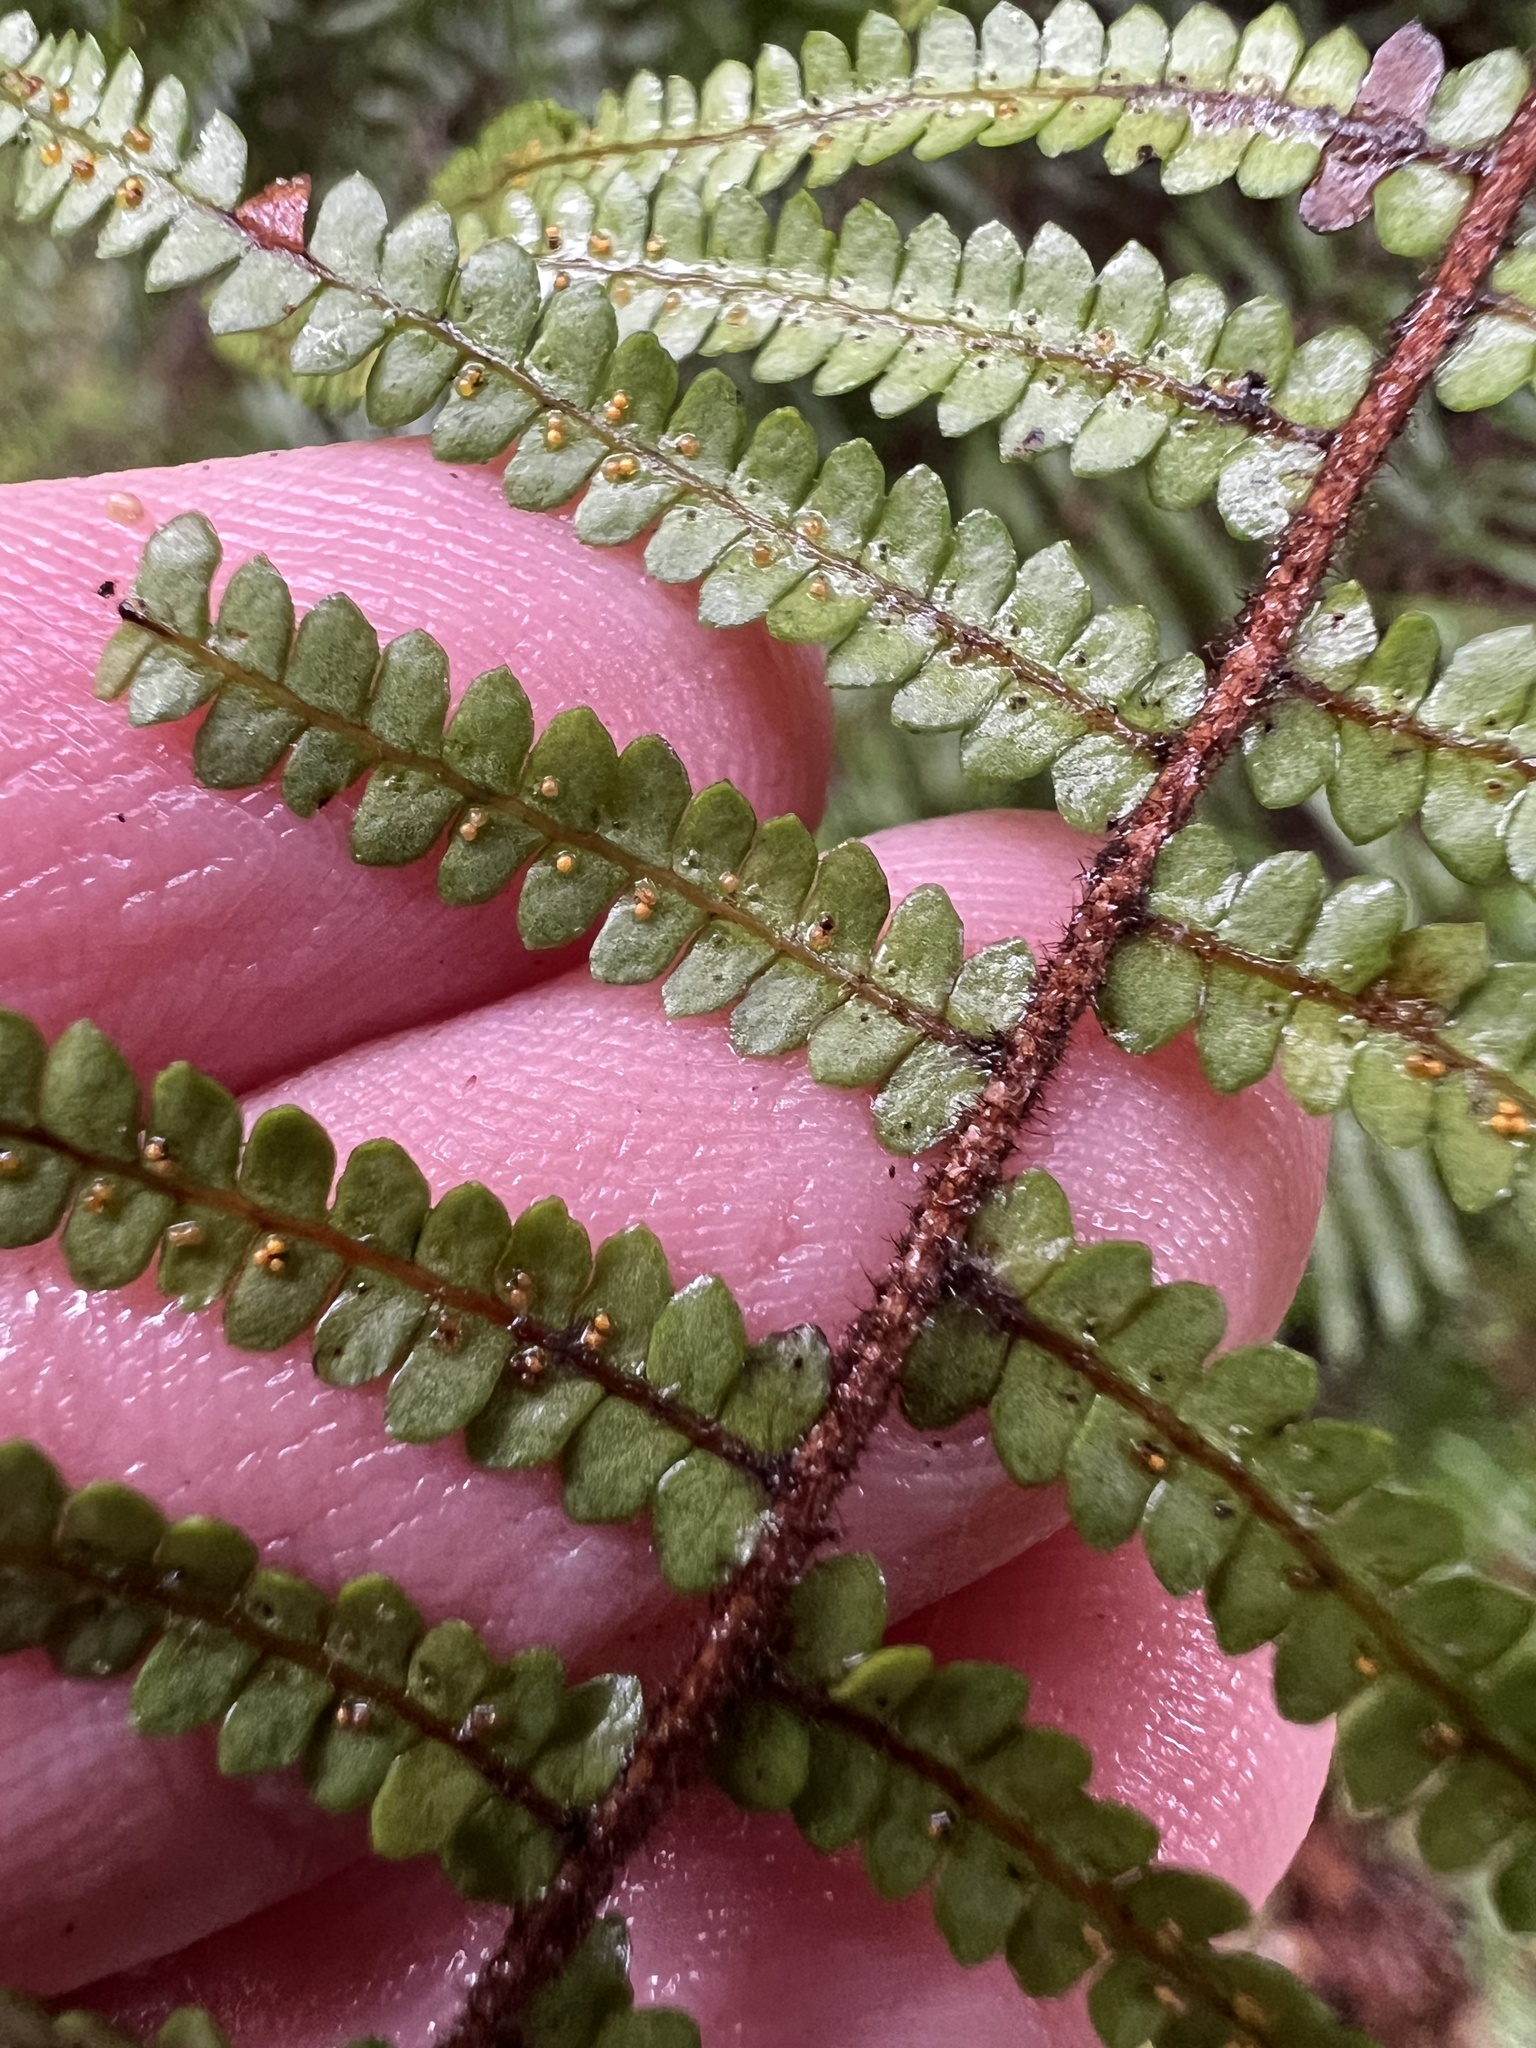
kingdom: Plantae
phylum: Tracheophyta
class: Polypodiopsida
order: Gleicheniales
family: Gleicheniaceae
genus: Gleichenia
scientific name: Gleichenia microphylla
